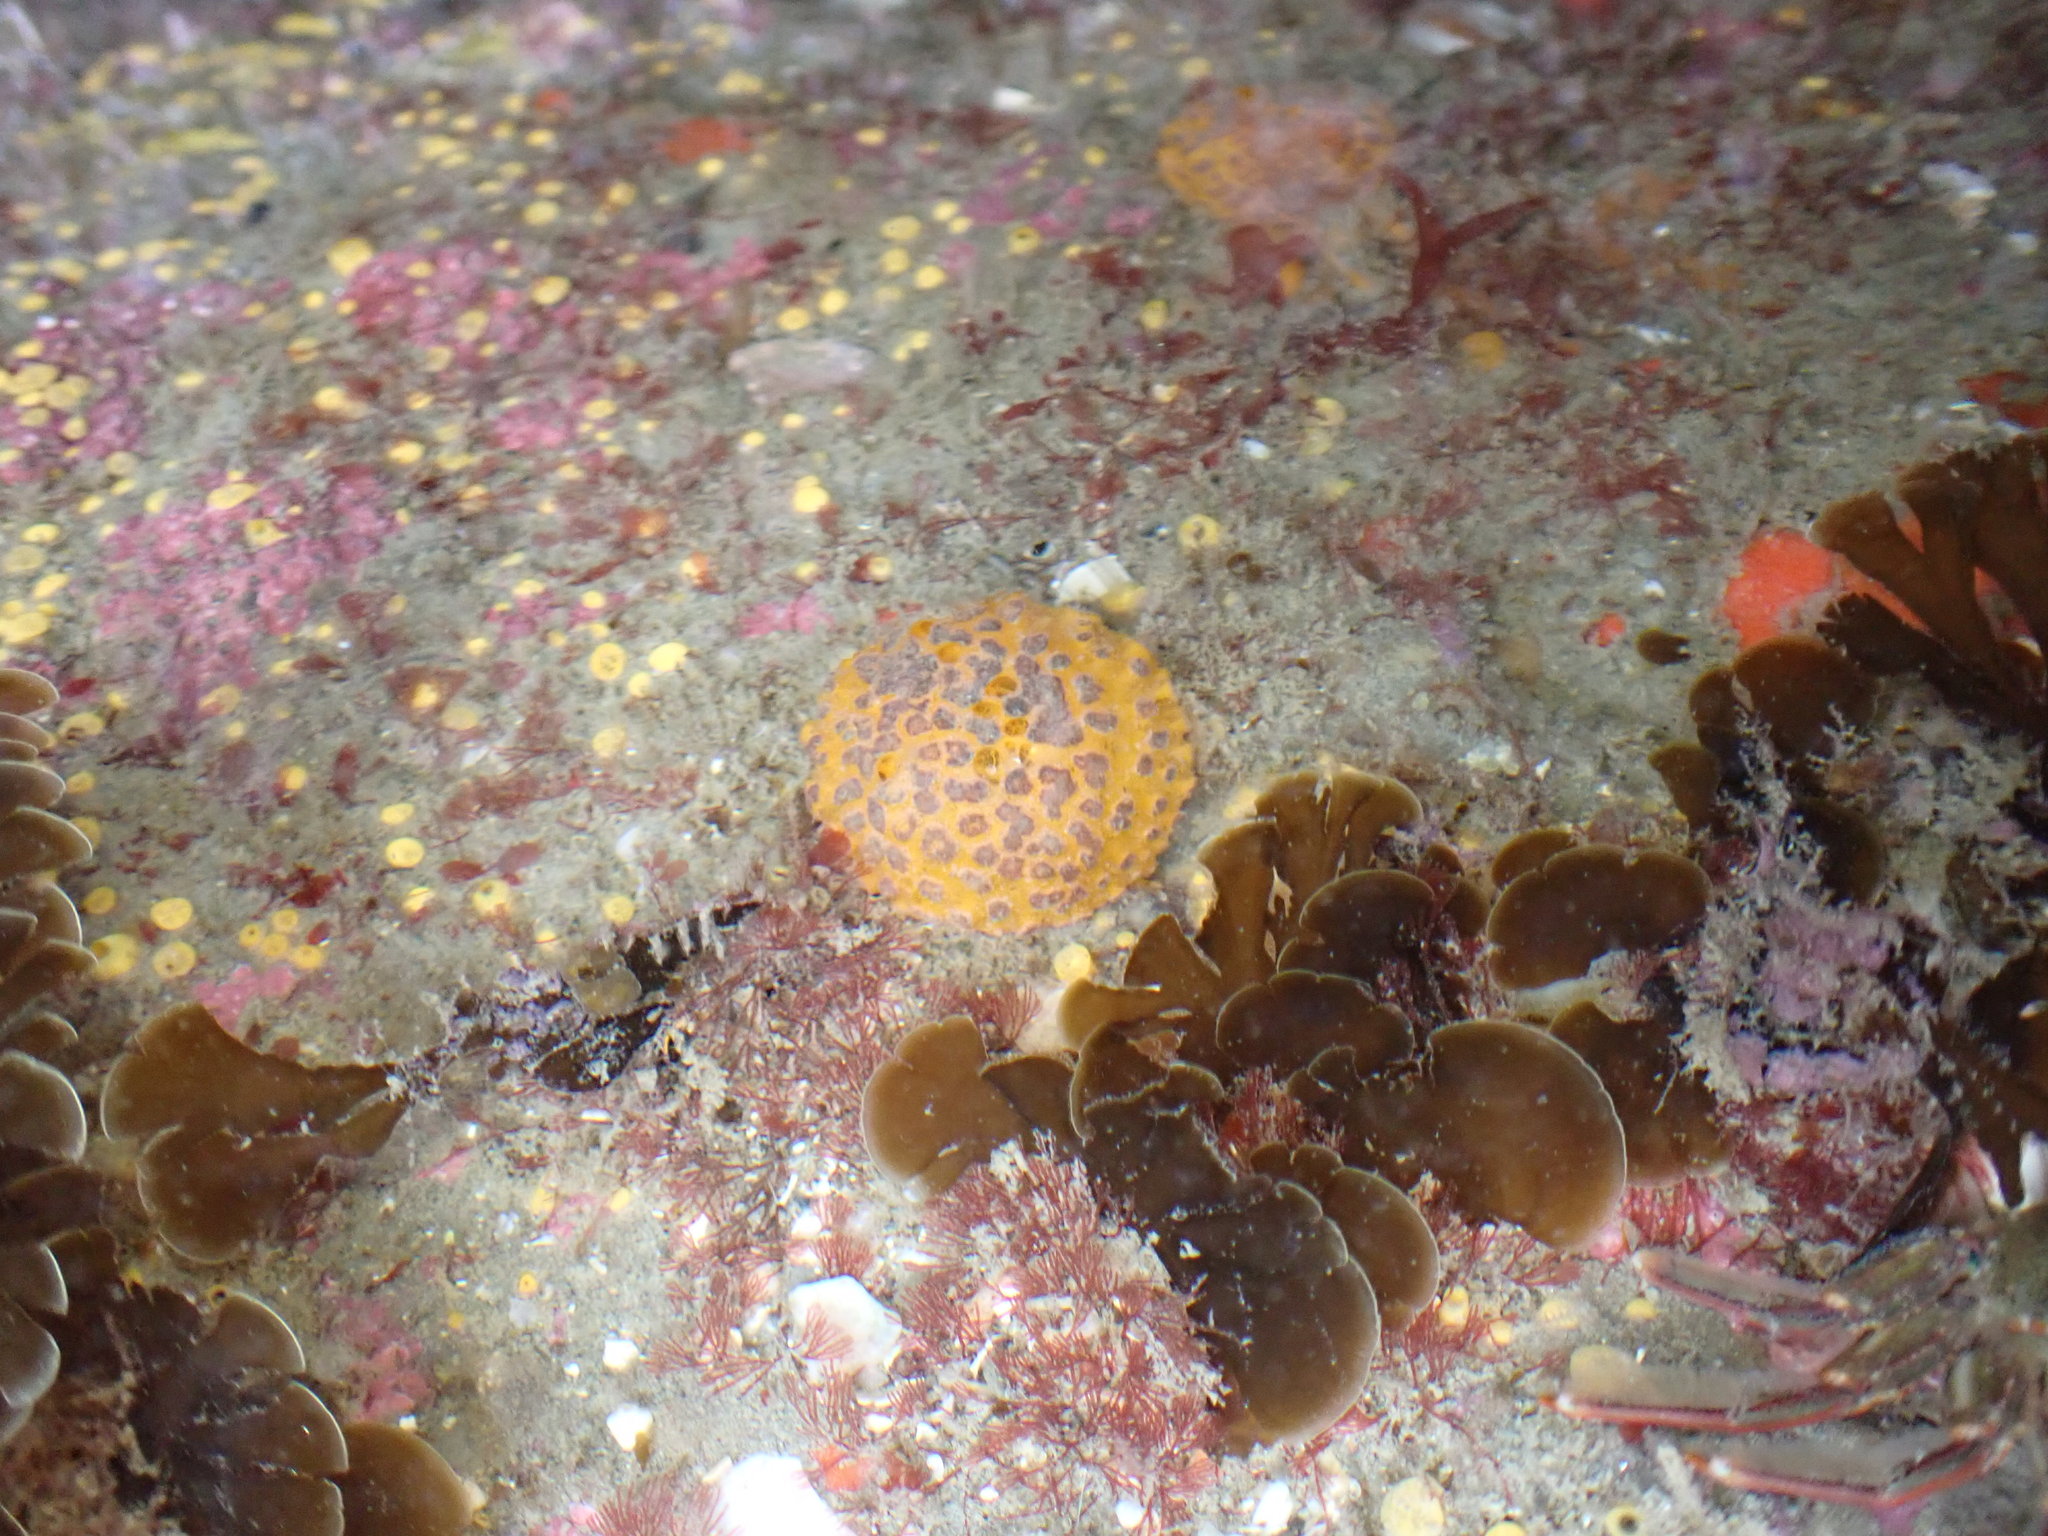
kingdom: Animalia
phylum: Porifera
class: Demospongiae
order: Tethyida
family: Tethyidae
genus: Tethya
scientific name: Tethya burtoni
